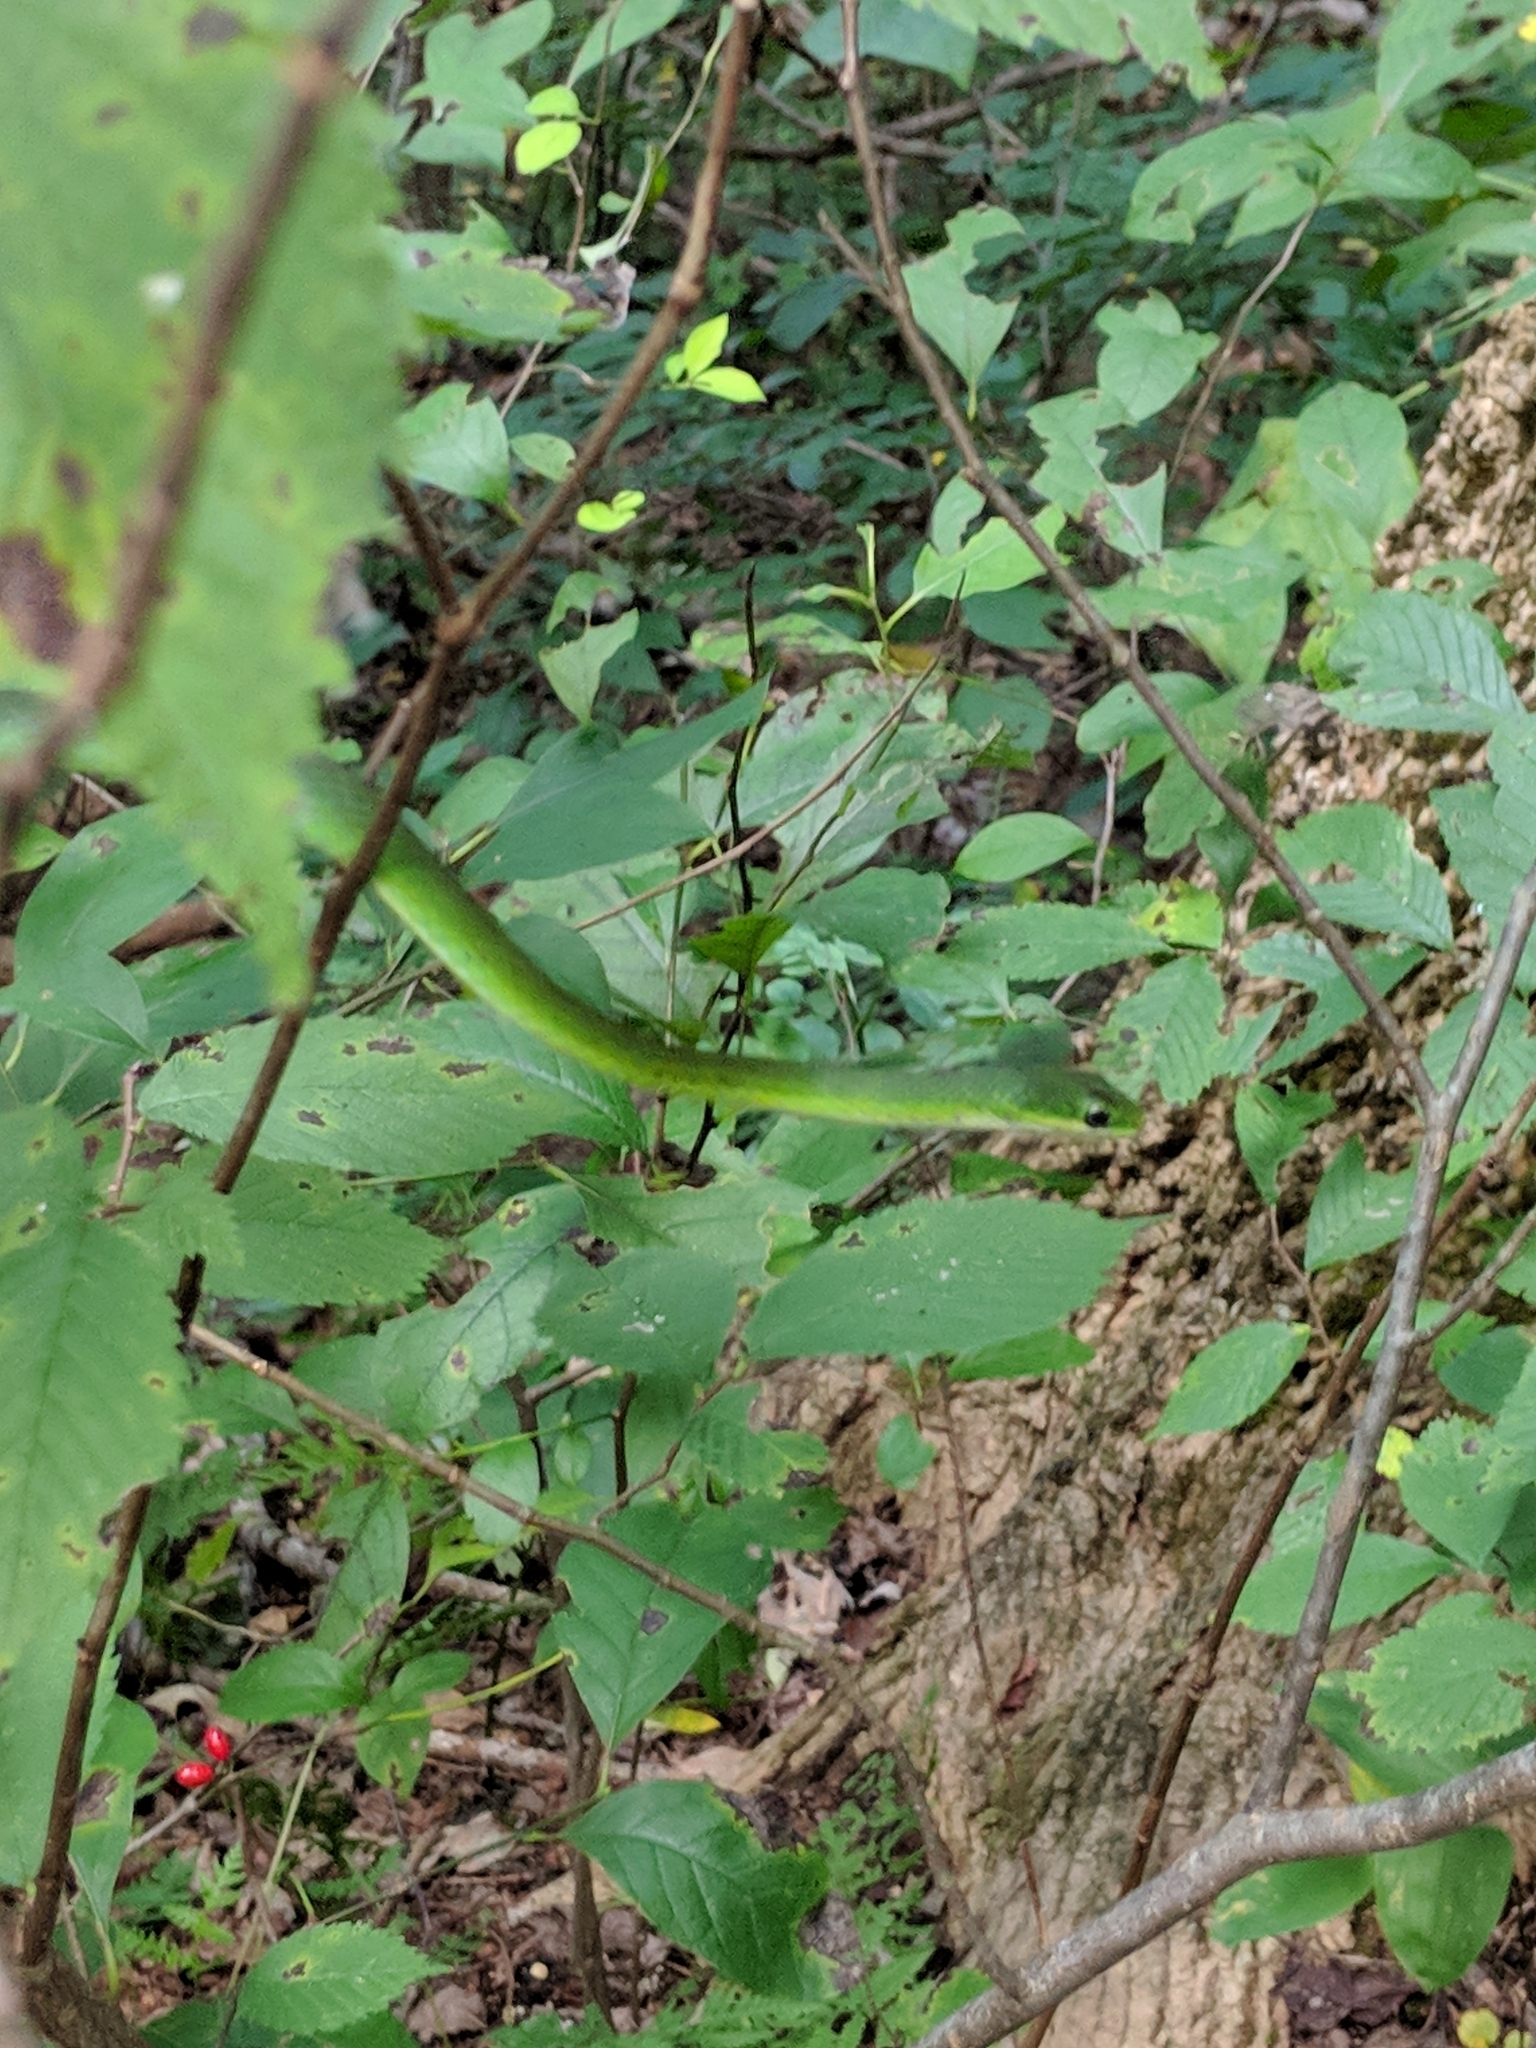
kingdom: Animalia
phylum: Chordata
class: Squamata
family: Colubridae
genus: Opheodrys
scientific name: Opheodrys aestivus
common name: Rough greensnake
